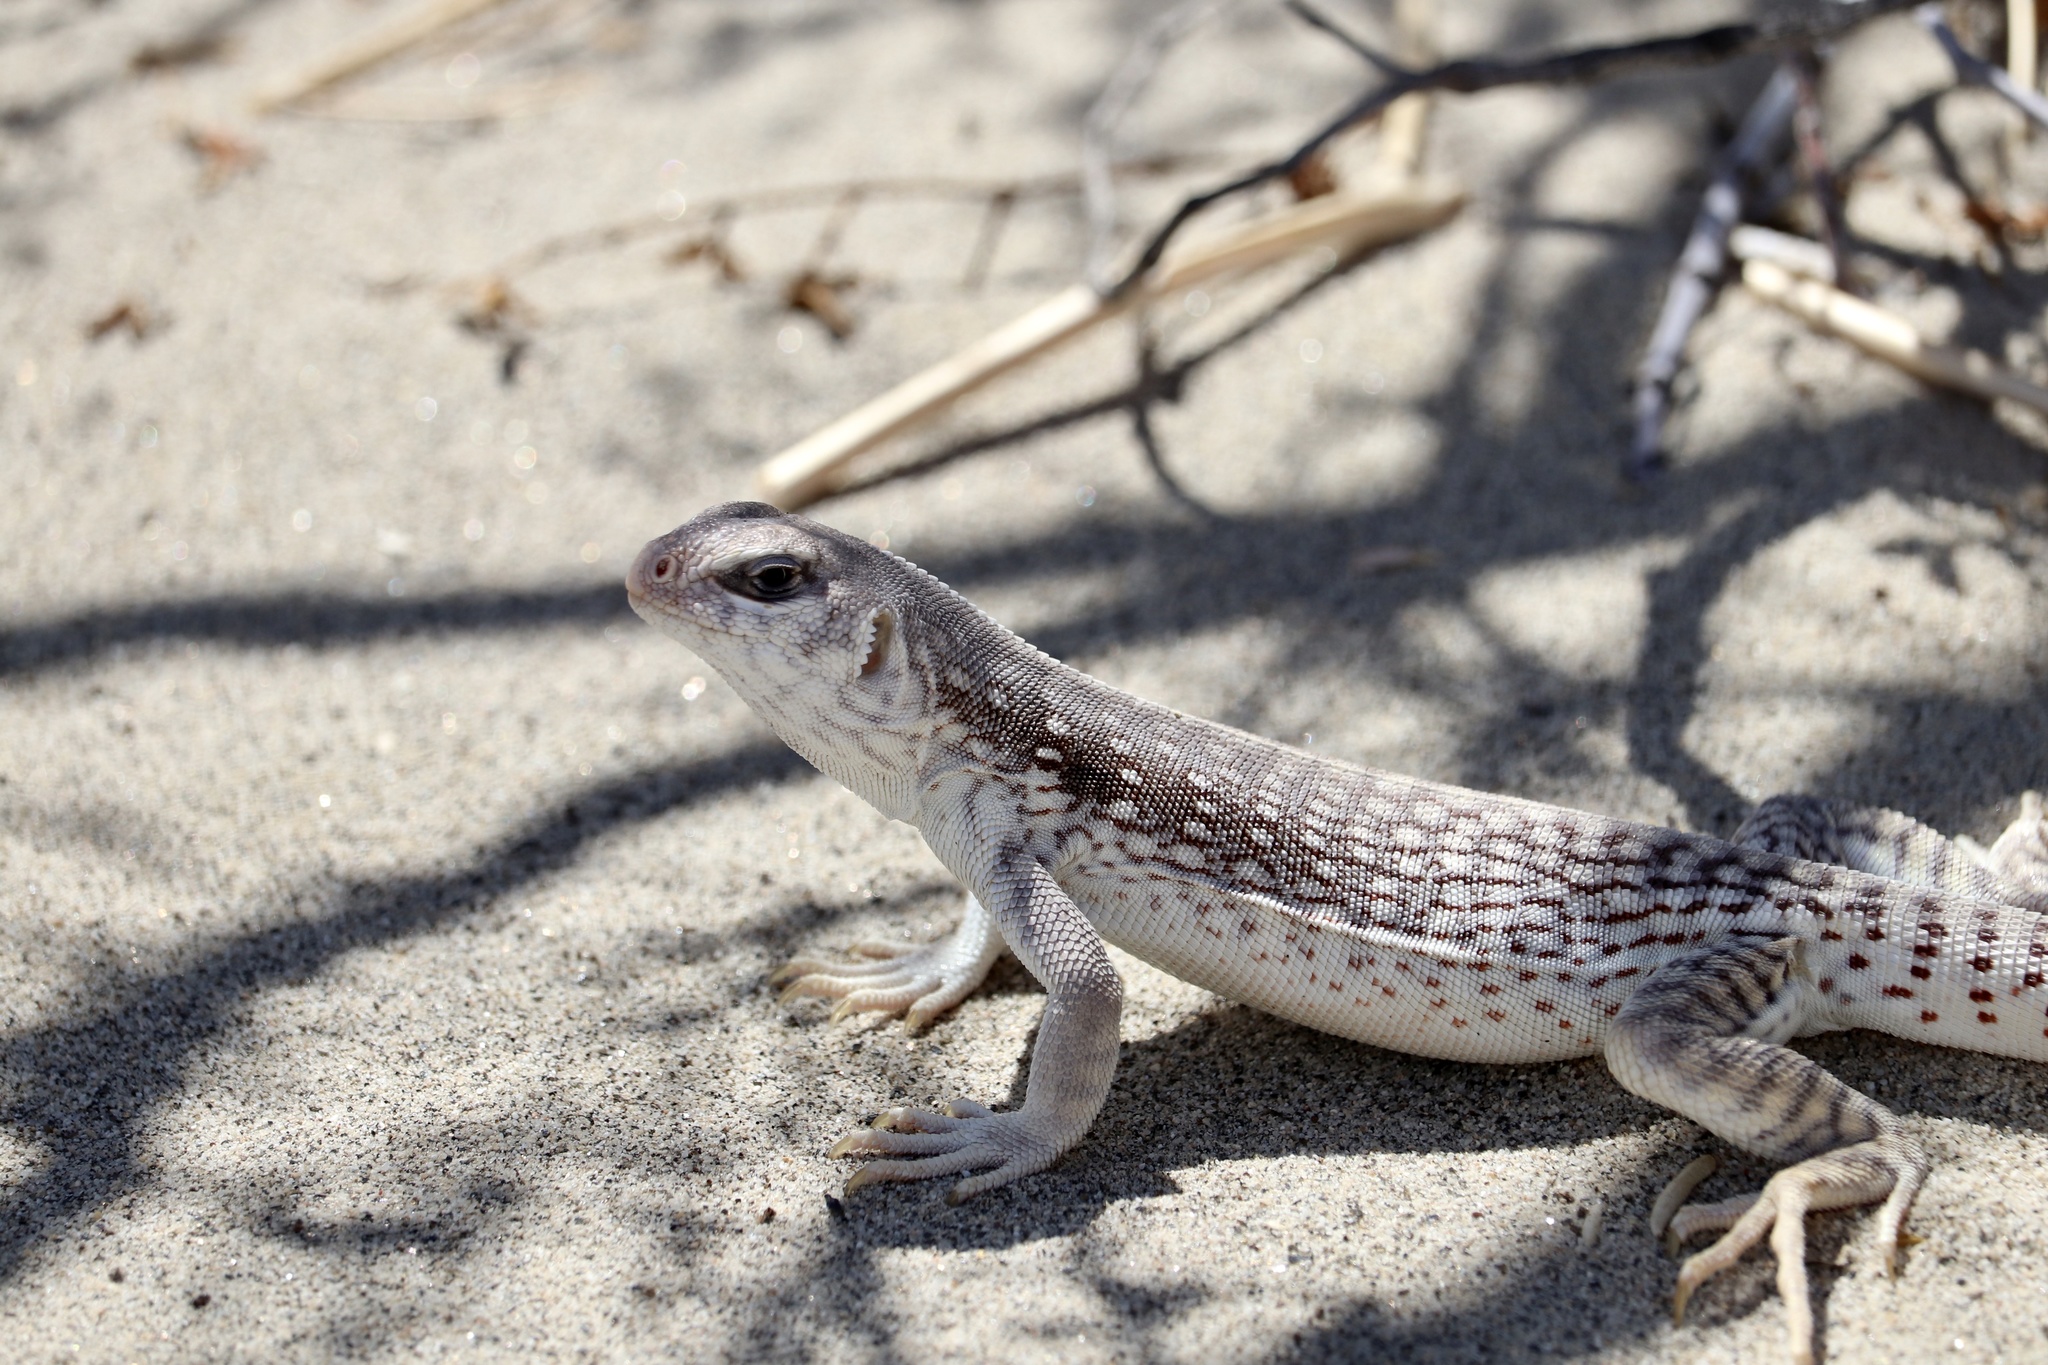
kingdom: Animalia
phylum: Chordata
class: Squamata
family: Iguanidae
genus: Dipsosaurus
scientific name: Dipsosaurus dorsalis
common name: Desert iguana
